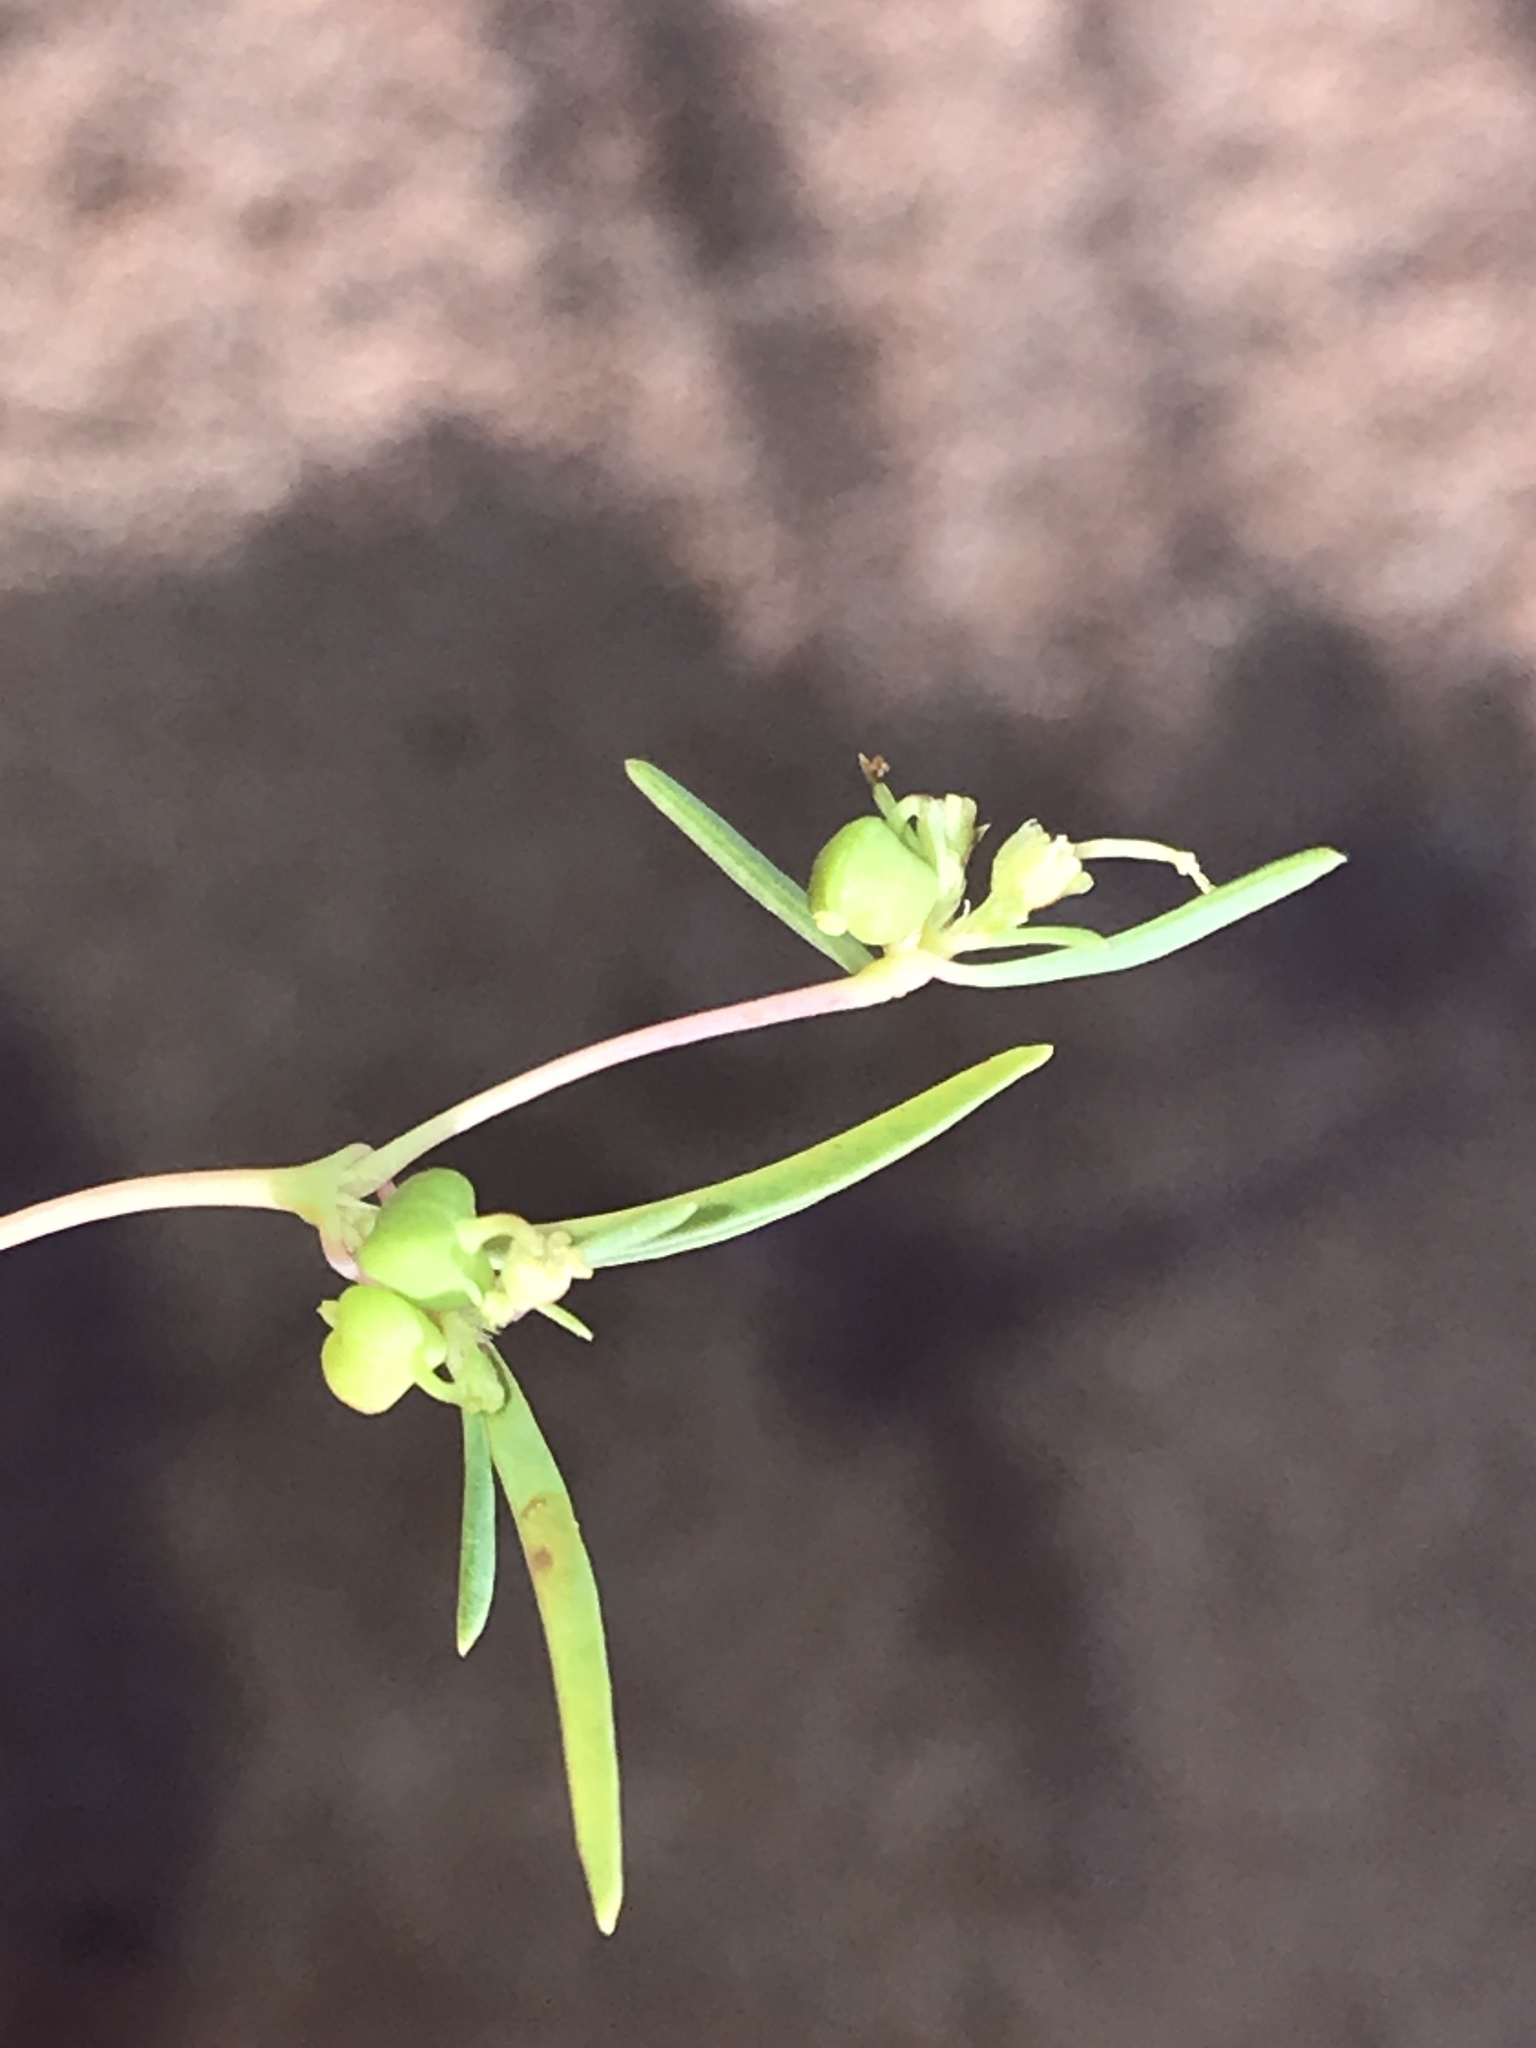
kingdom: Plantae
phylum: Tracheophyta
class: Magnoliopsida
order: Malpighiales
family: Euphorbiaceae
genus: Euphorbia
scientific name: Euphorbia parryi
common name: Dune spurge
